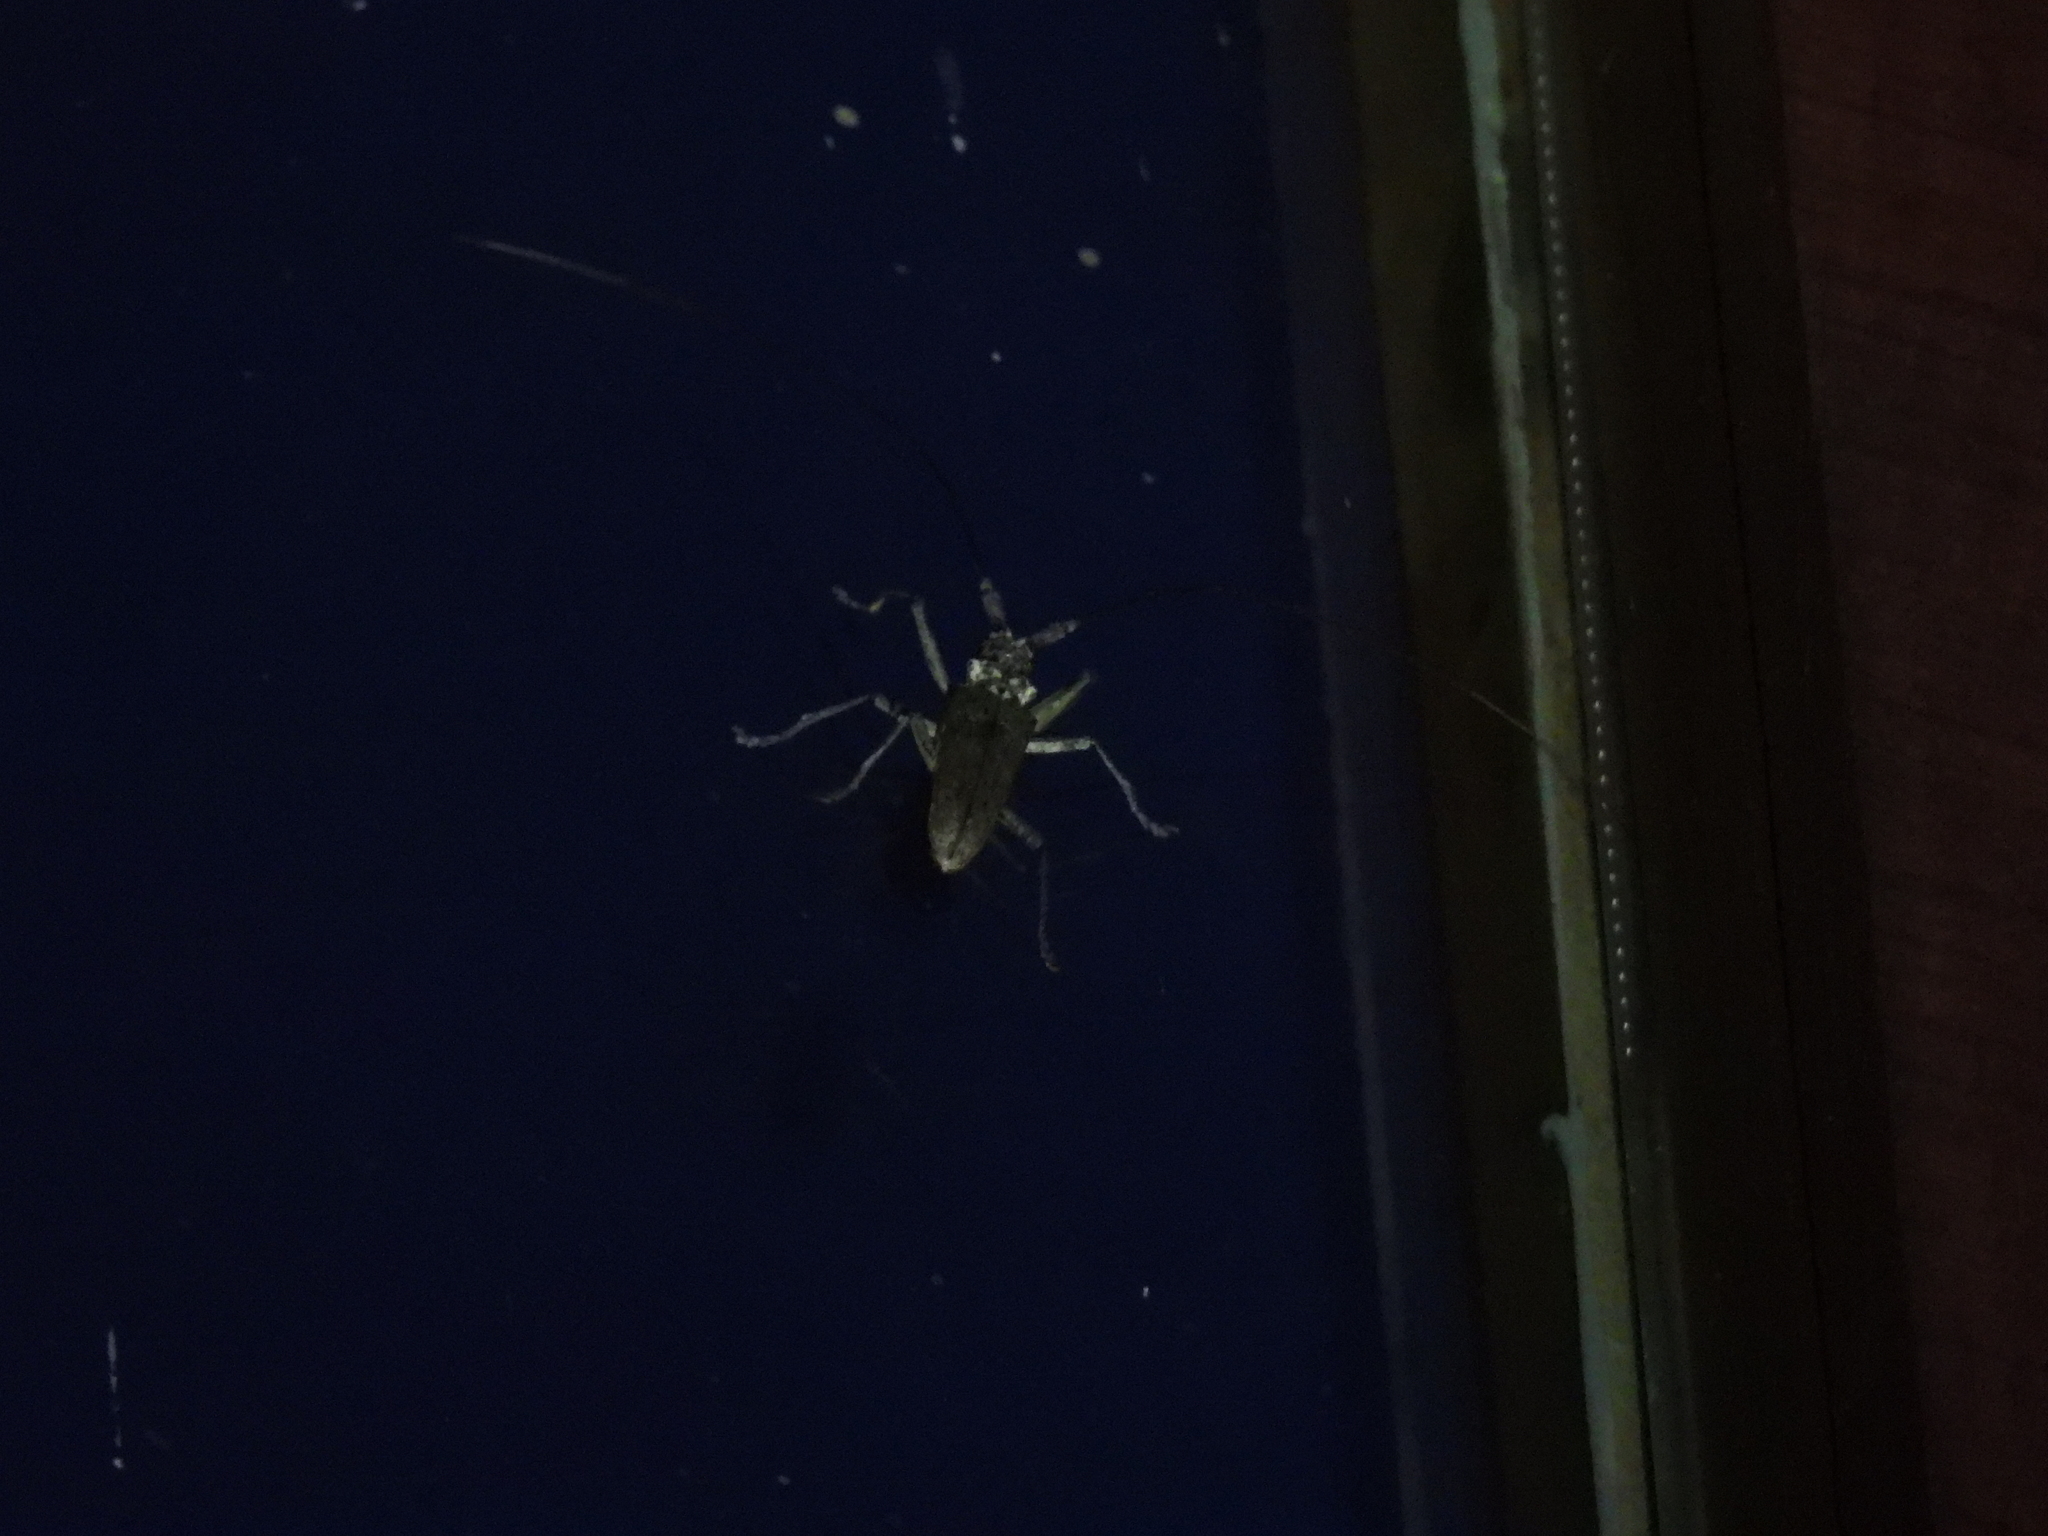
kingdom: Animalia
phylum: Arthropoda
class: Insecta
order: Coleoptera
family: Cerambycidae
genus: Monochamus
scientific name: Monochamus notatus
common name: Northeastern pine sawyer beetle
